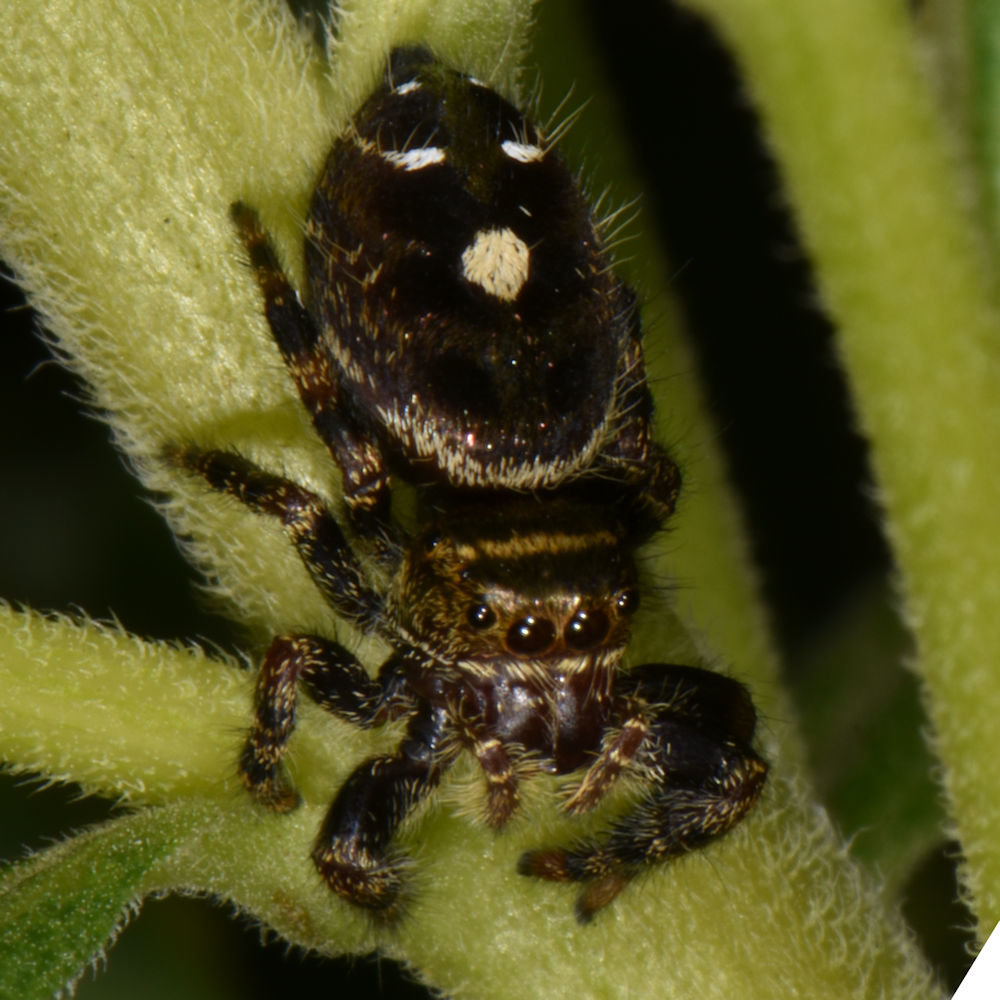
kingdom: Animalia
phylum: Arthropoda
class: Arachnida
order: Araneae
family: Salticidae
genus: Phidippus
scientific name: Phidippus audax
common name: Bold jumper
